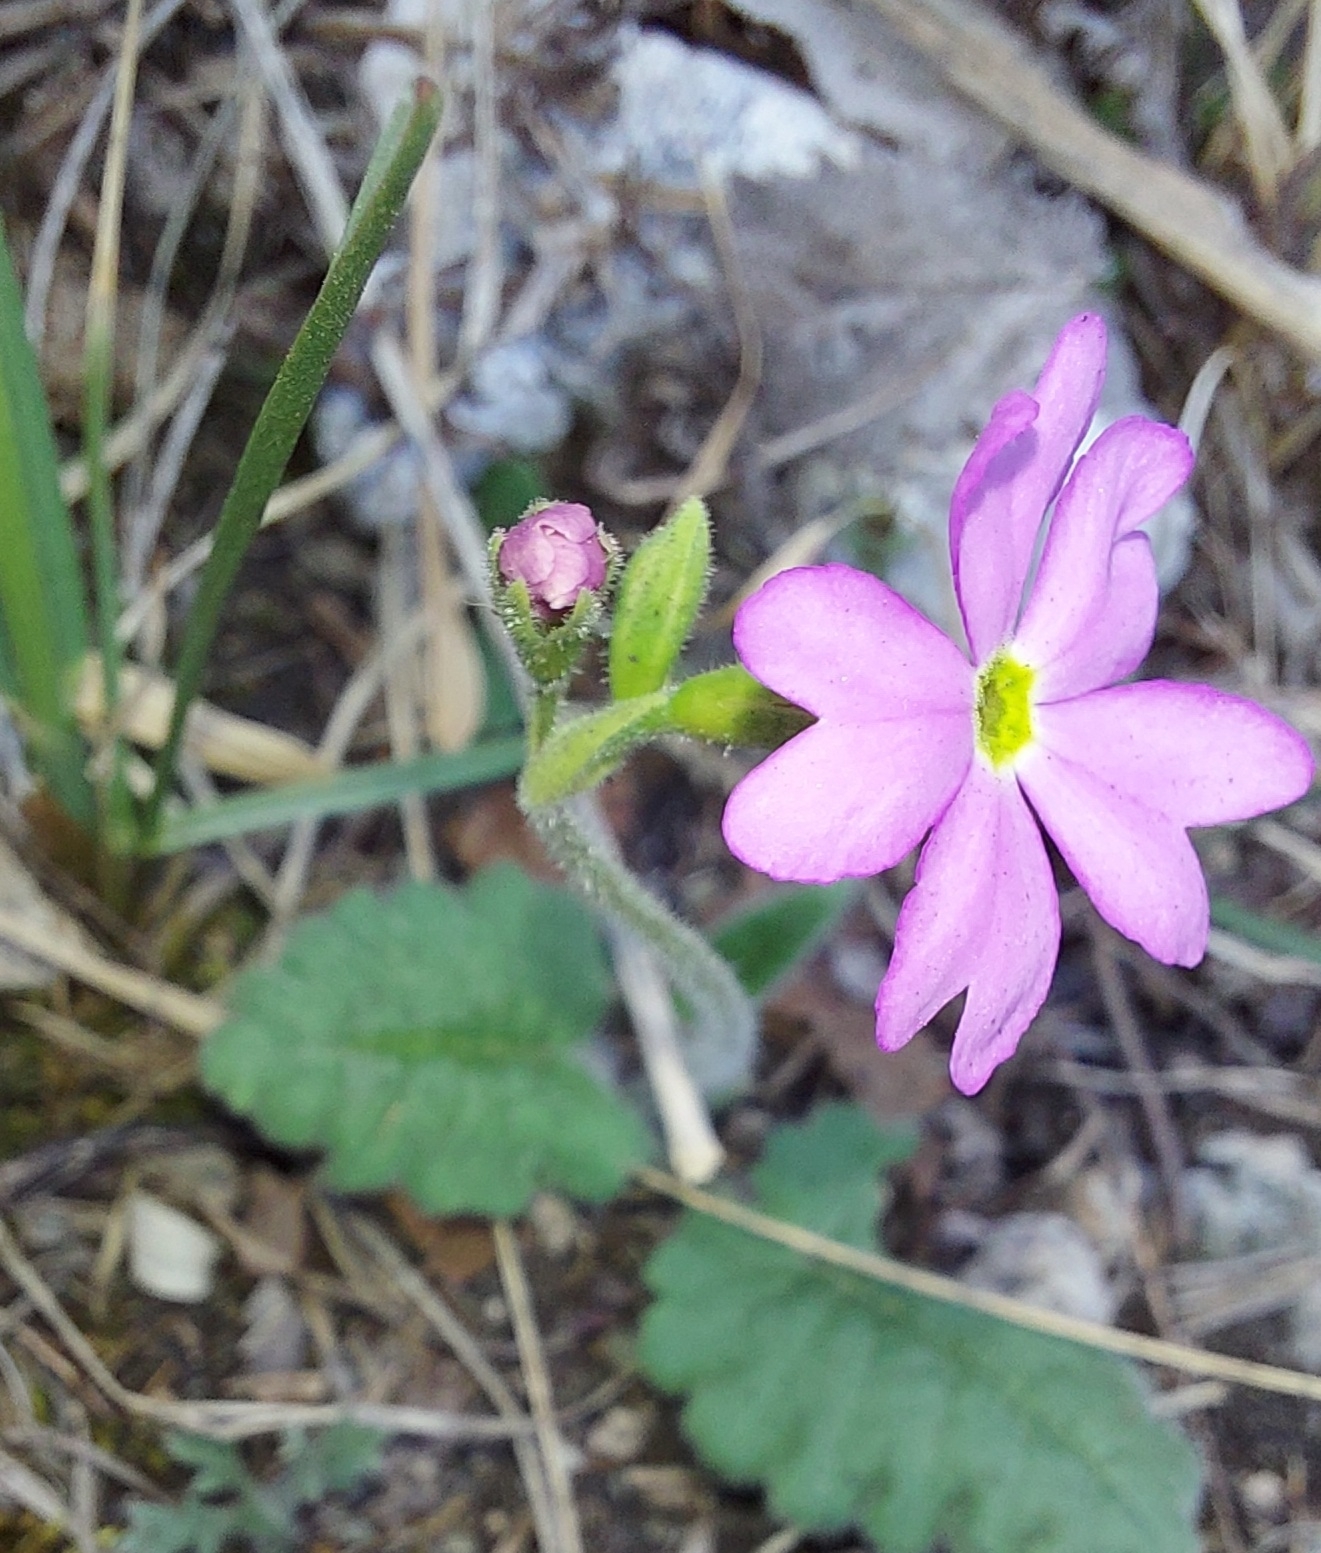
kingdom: Plantae
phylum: Tracheophyta
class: Magnoliopsida
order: Ericales
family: Primulaceae
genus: Primula
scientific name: Primula cortusoides
